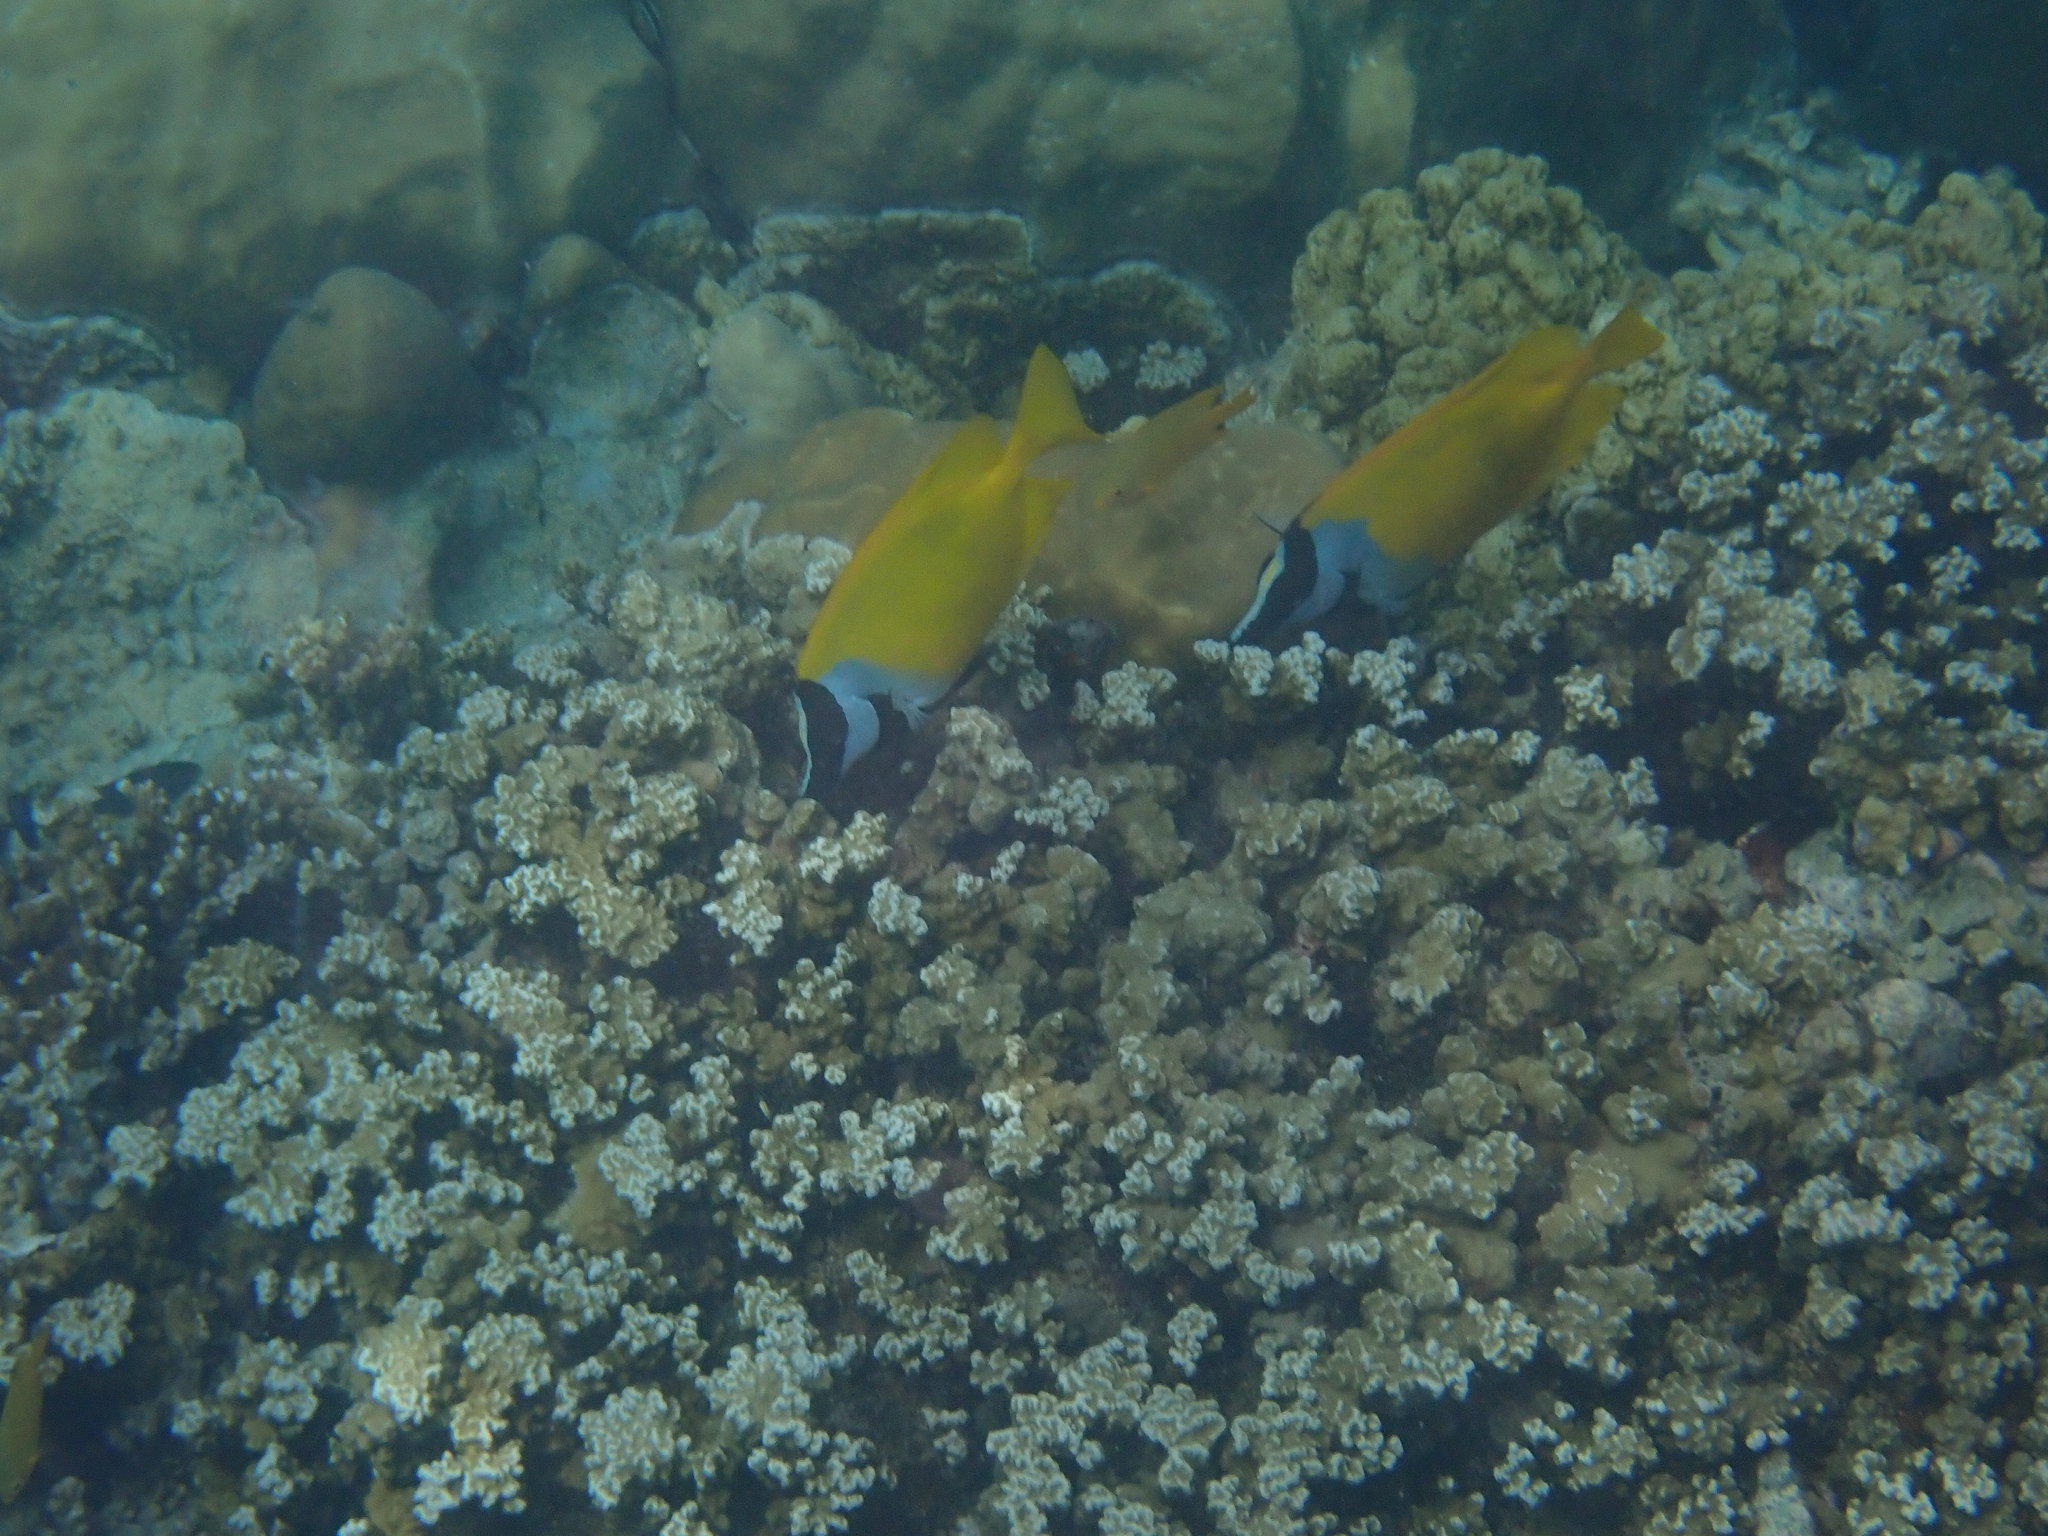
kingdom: Animalia
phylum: Chordata
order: Perciformes
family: Siganidae
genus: Siganus
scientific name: Siganus vulpinus
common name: Foxface
